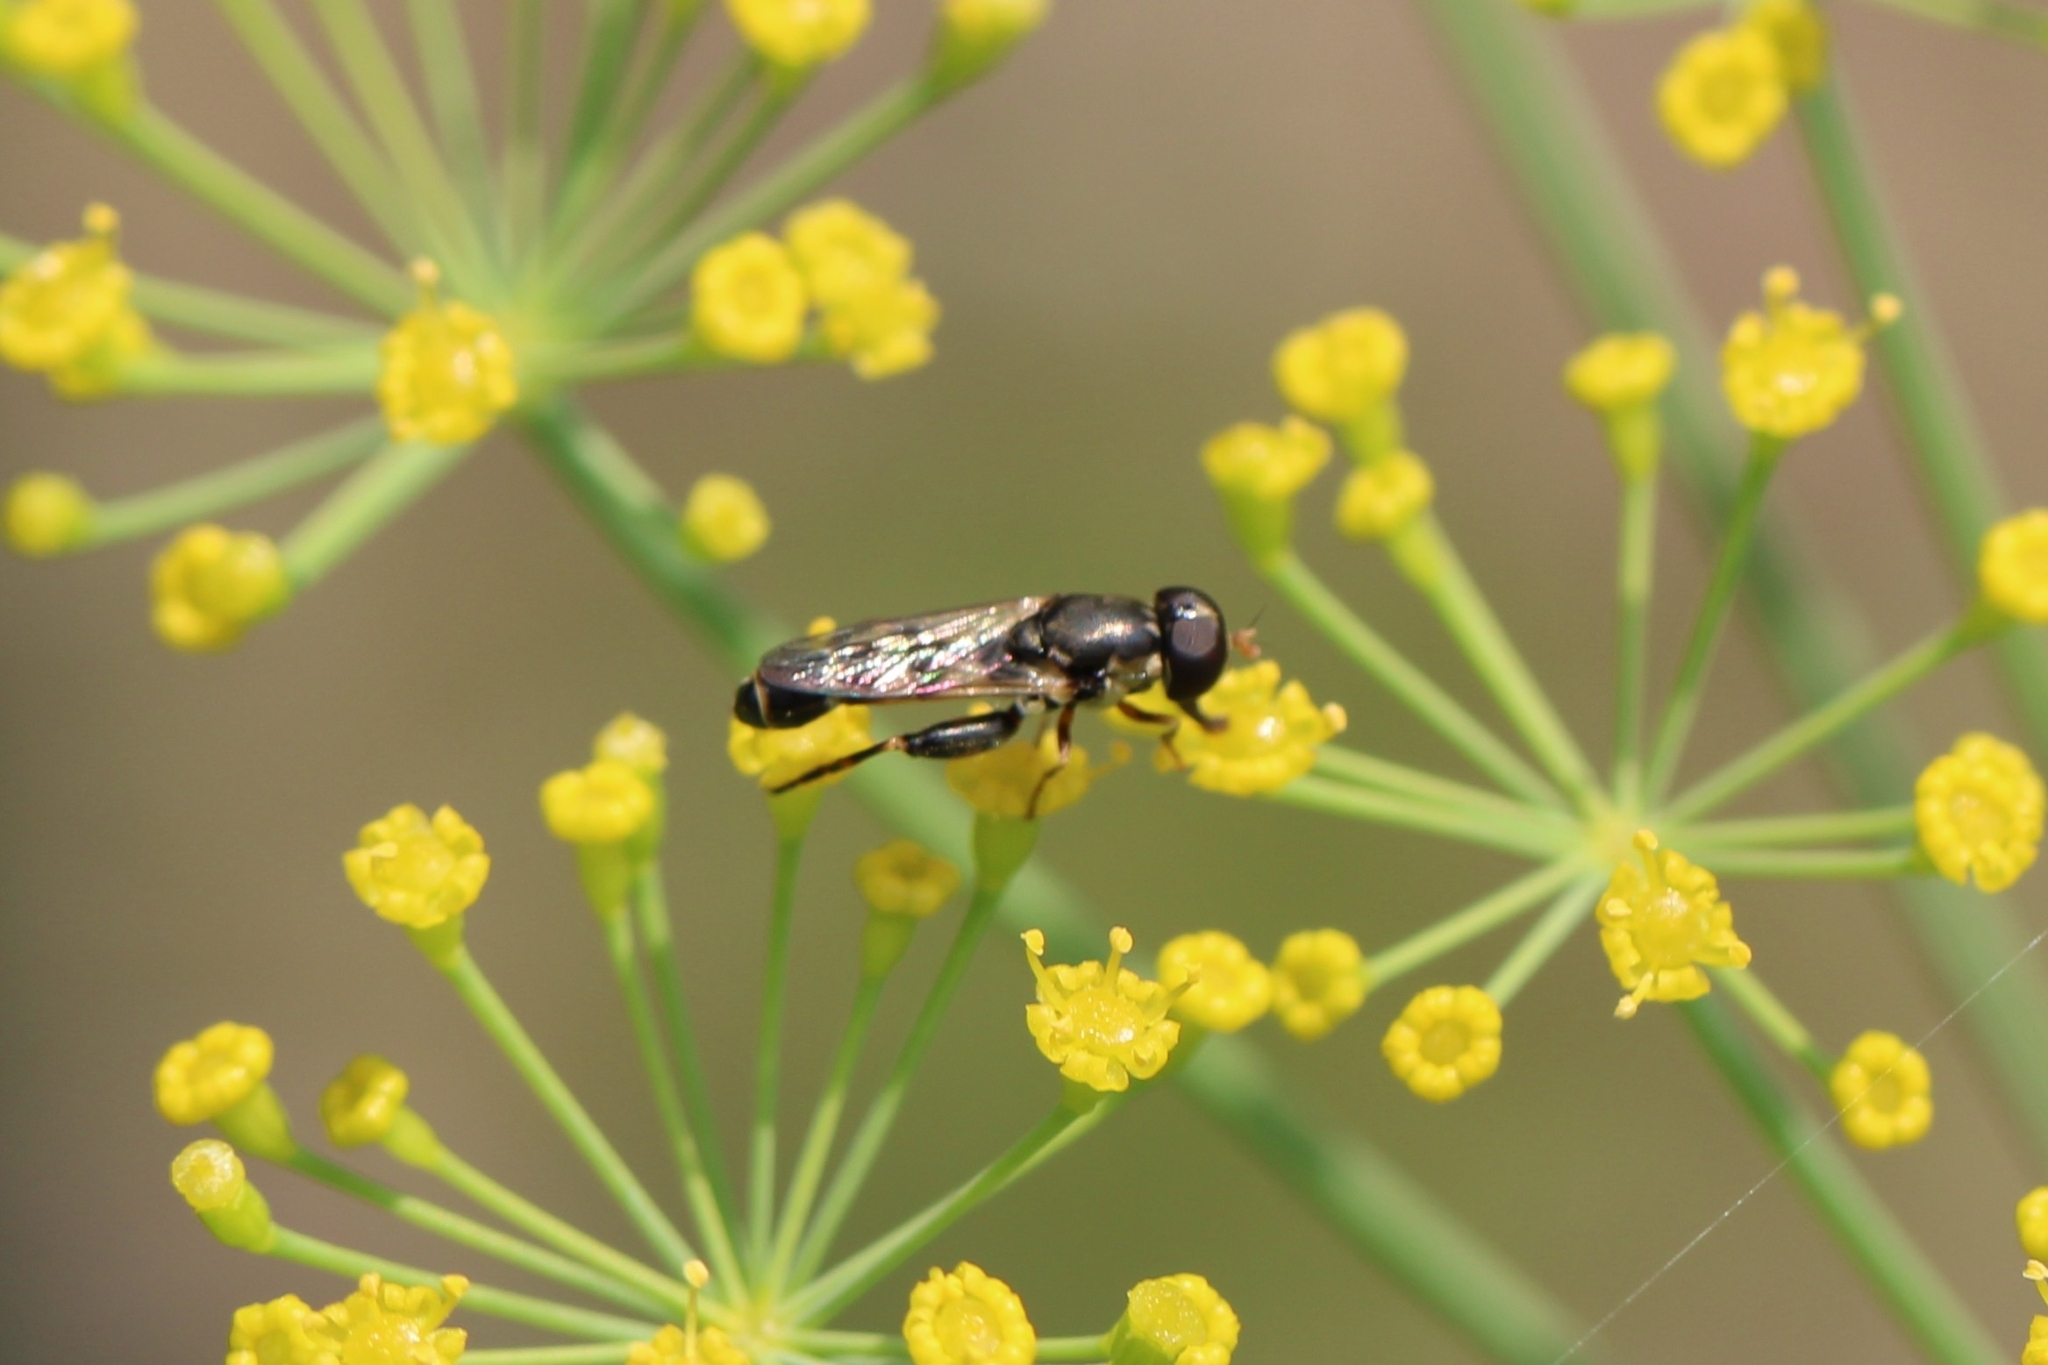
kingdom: Animalia
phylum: Arthropoda
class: Insecta
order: Diptera
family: Syrphidae
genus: Syritta
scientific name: Syritta pipiens
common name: Hover fly
